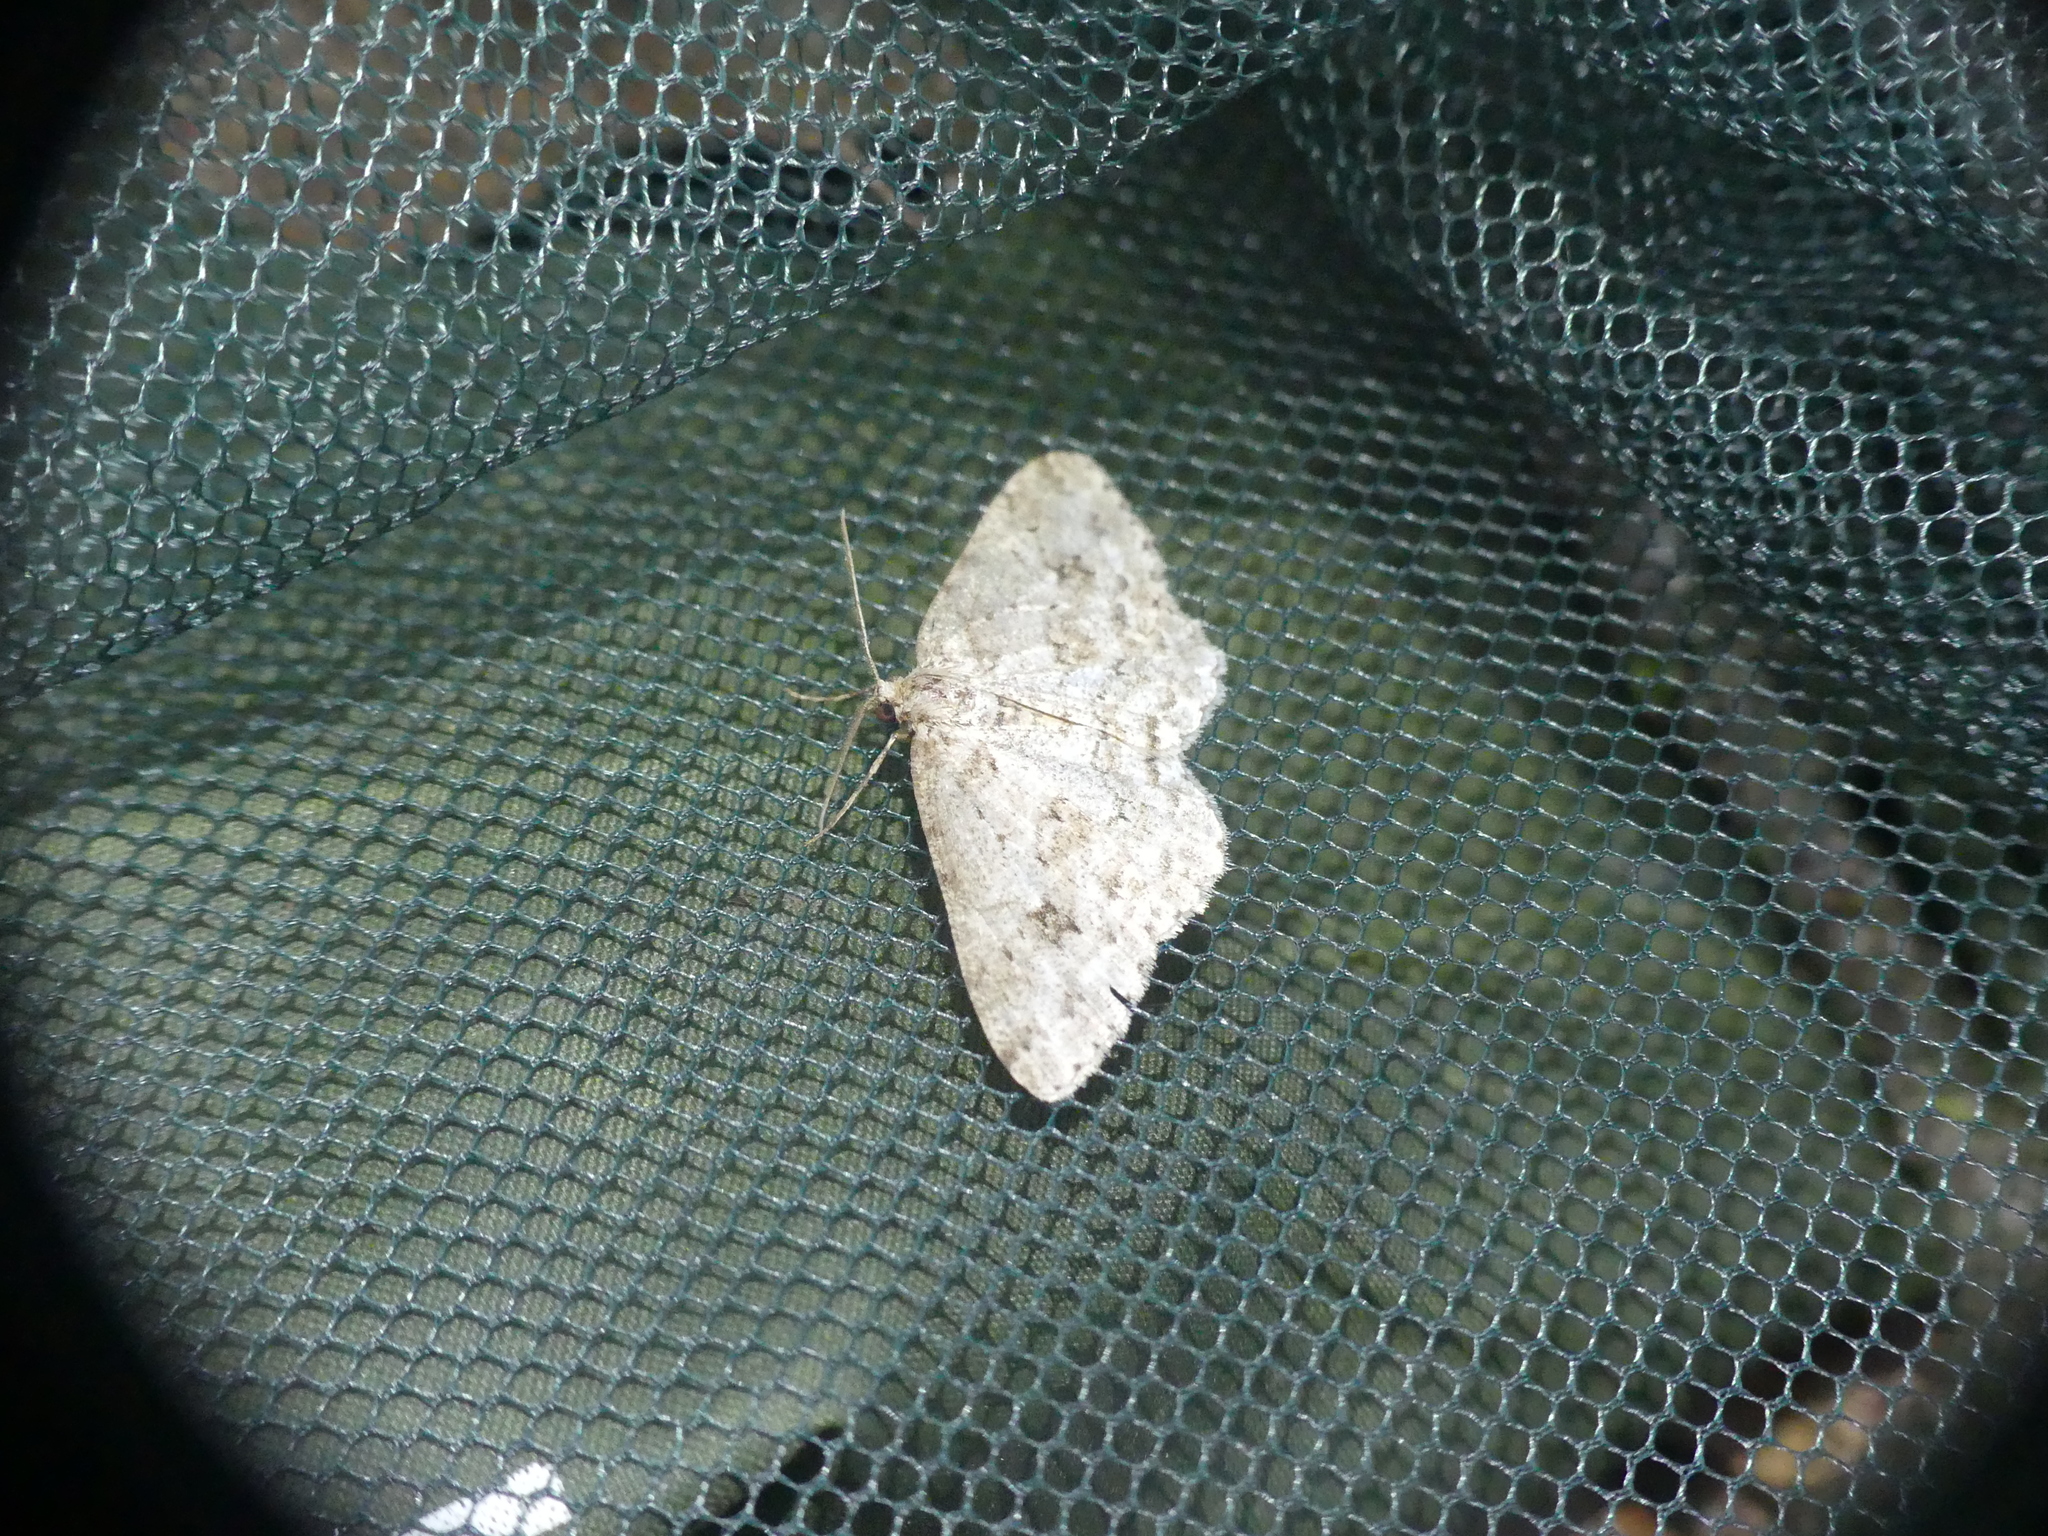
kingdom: Animalia
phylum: Arthropoda
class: Insecta
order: Lepidoptera
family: Geometridae
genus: Ectropis
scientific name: Ectropis crepuscularia
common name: Engrailed
